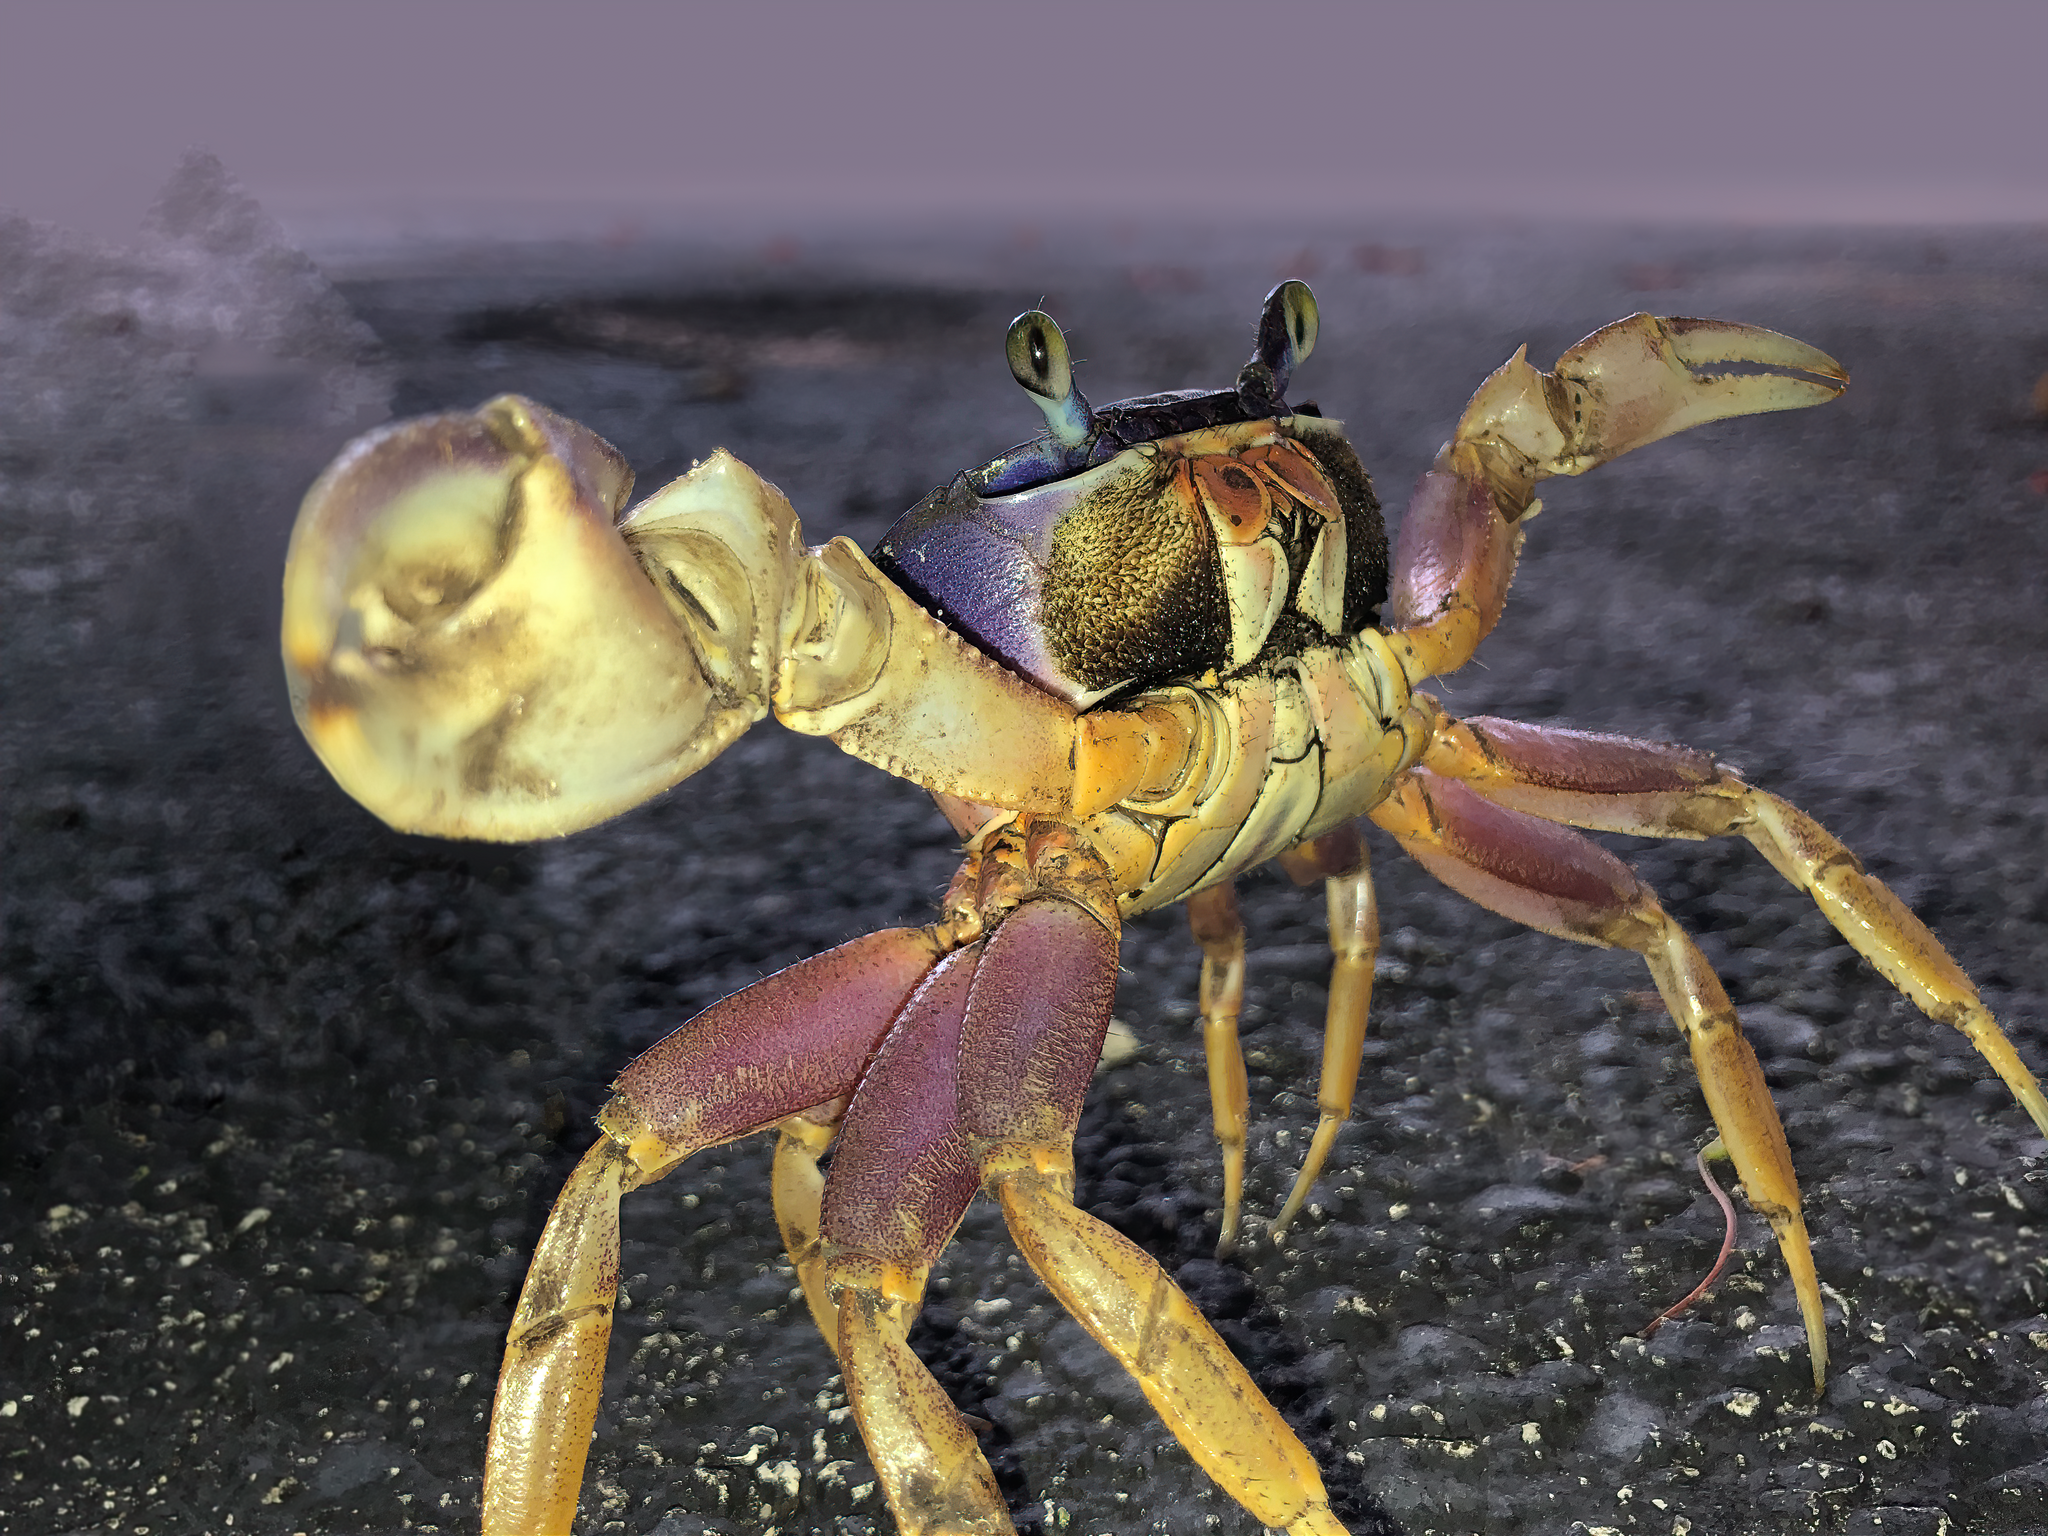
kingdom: Animalia
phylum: Arthropoda
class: Malacostraca
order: Decapoda
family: Gecarcinidae
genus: Cardisoma
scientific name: Cardisoma guanhumi
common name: Great land crab
